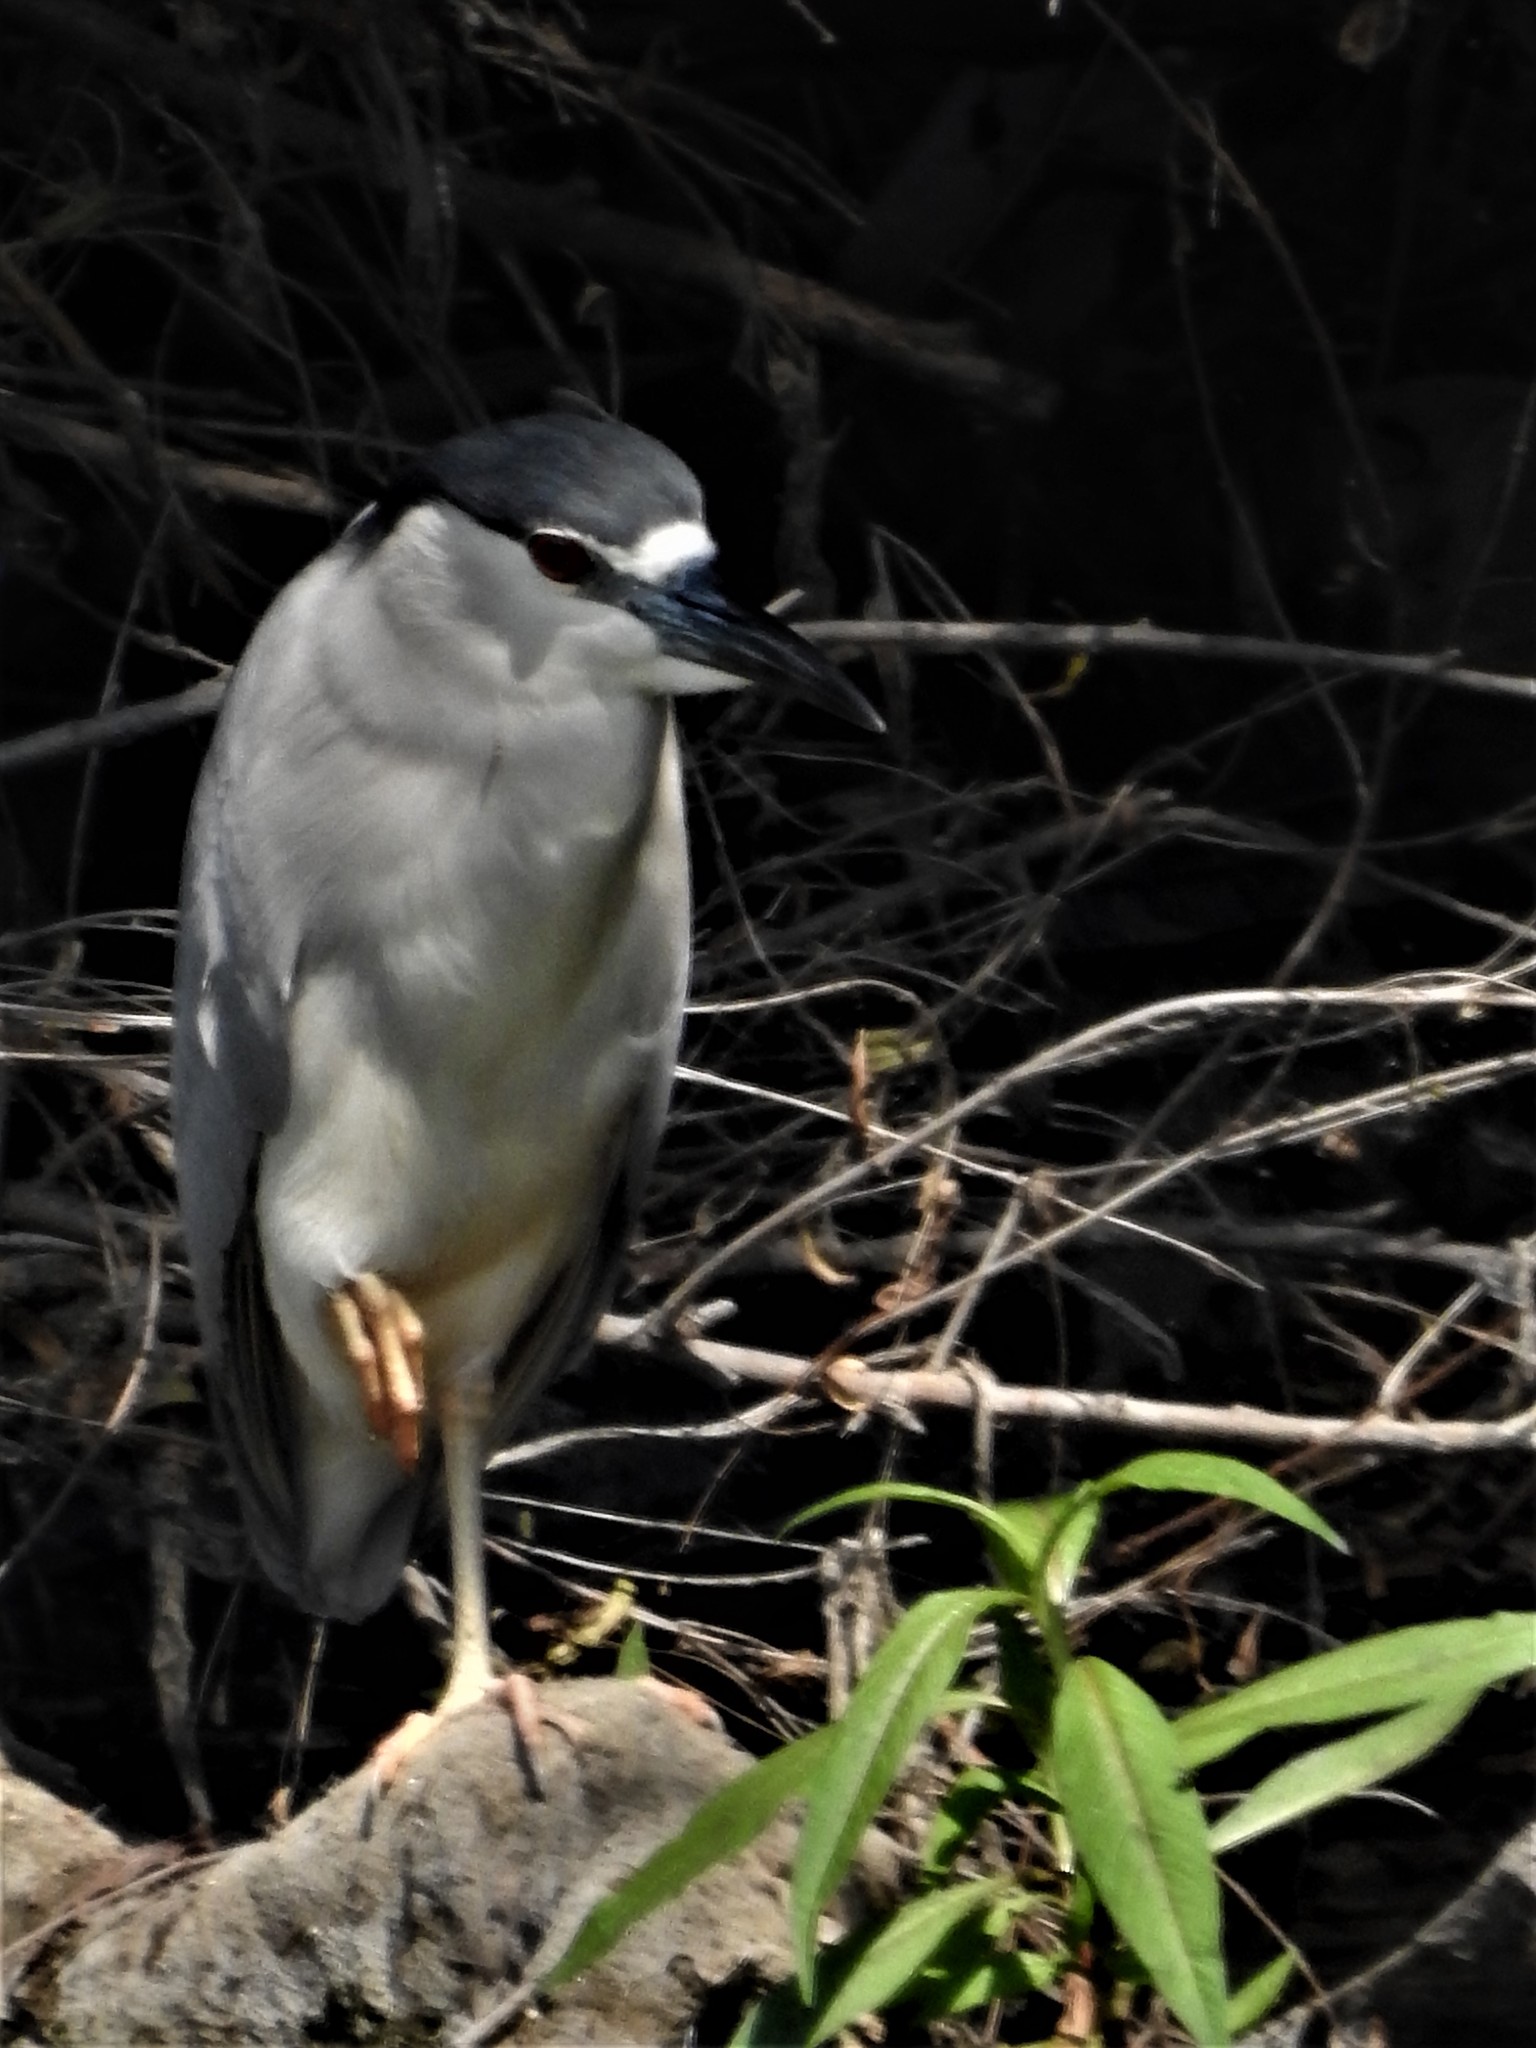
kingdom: Animalia
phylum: Chordata
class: Aves
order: Pelecaniformes
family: Ardeidae
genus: Nycticorax
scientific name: Nycticorax nycticorax
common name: Black-crowned night heron
